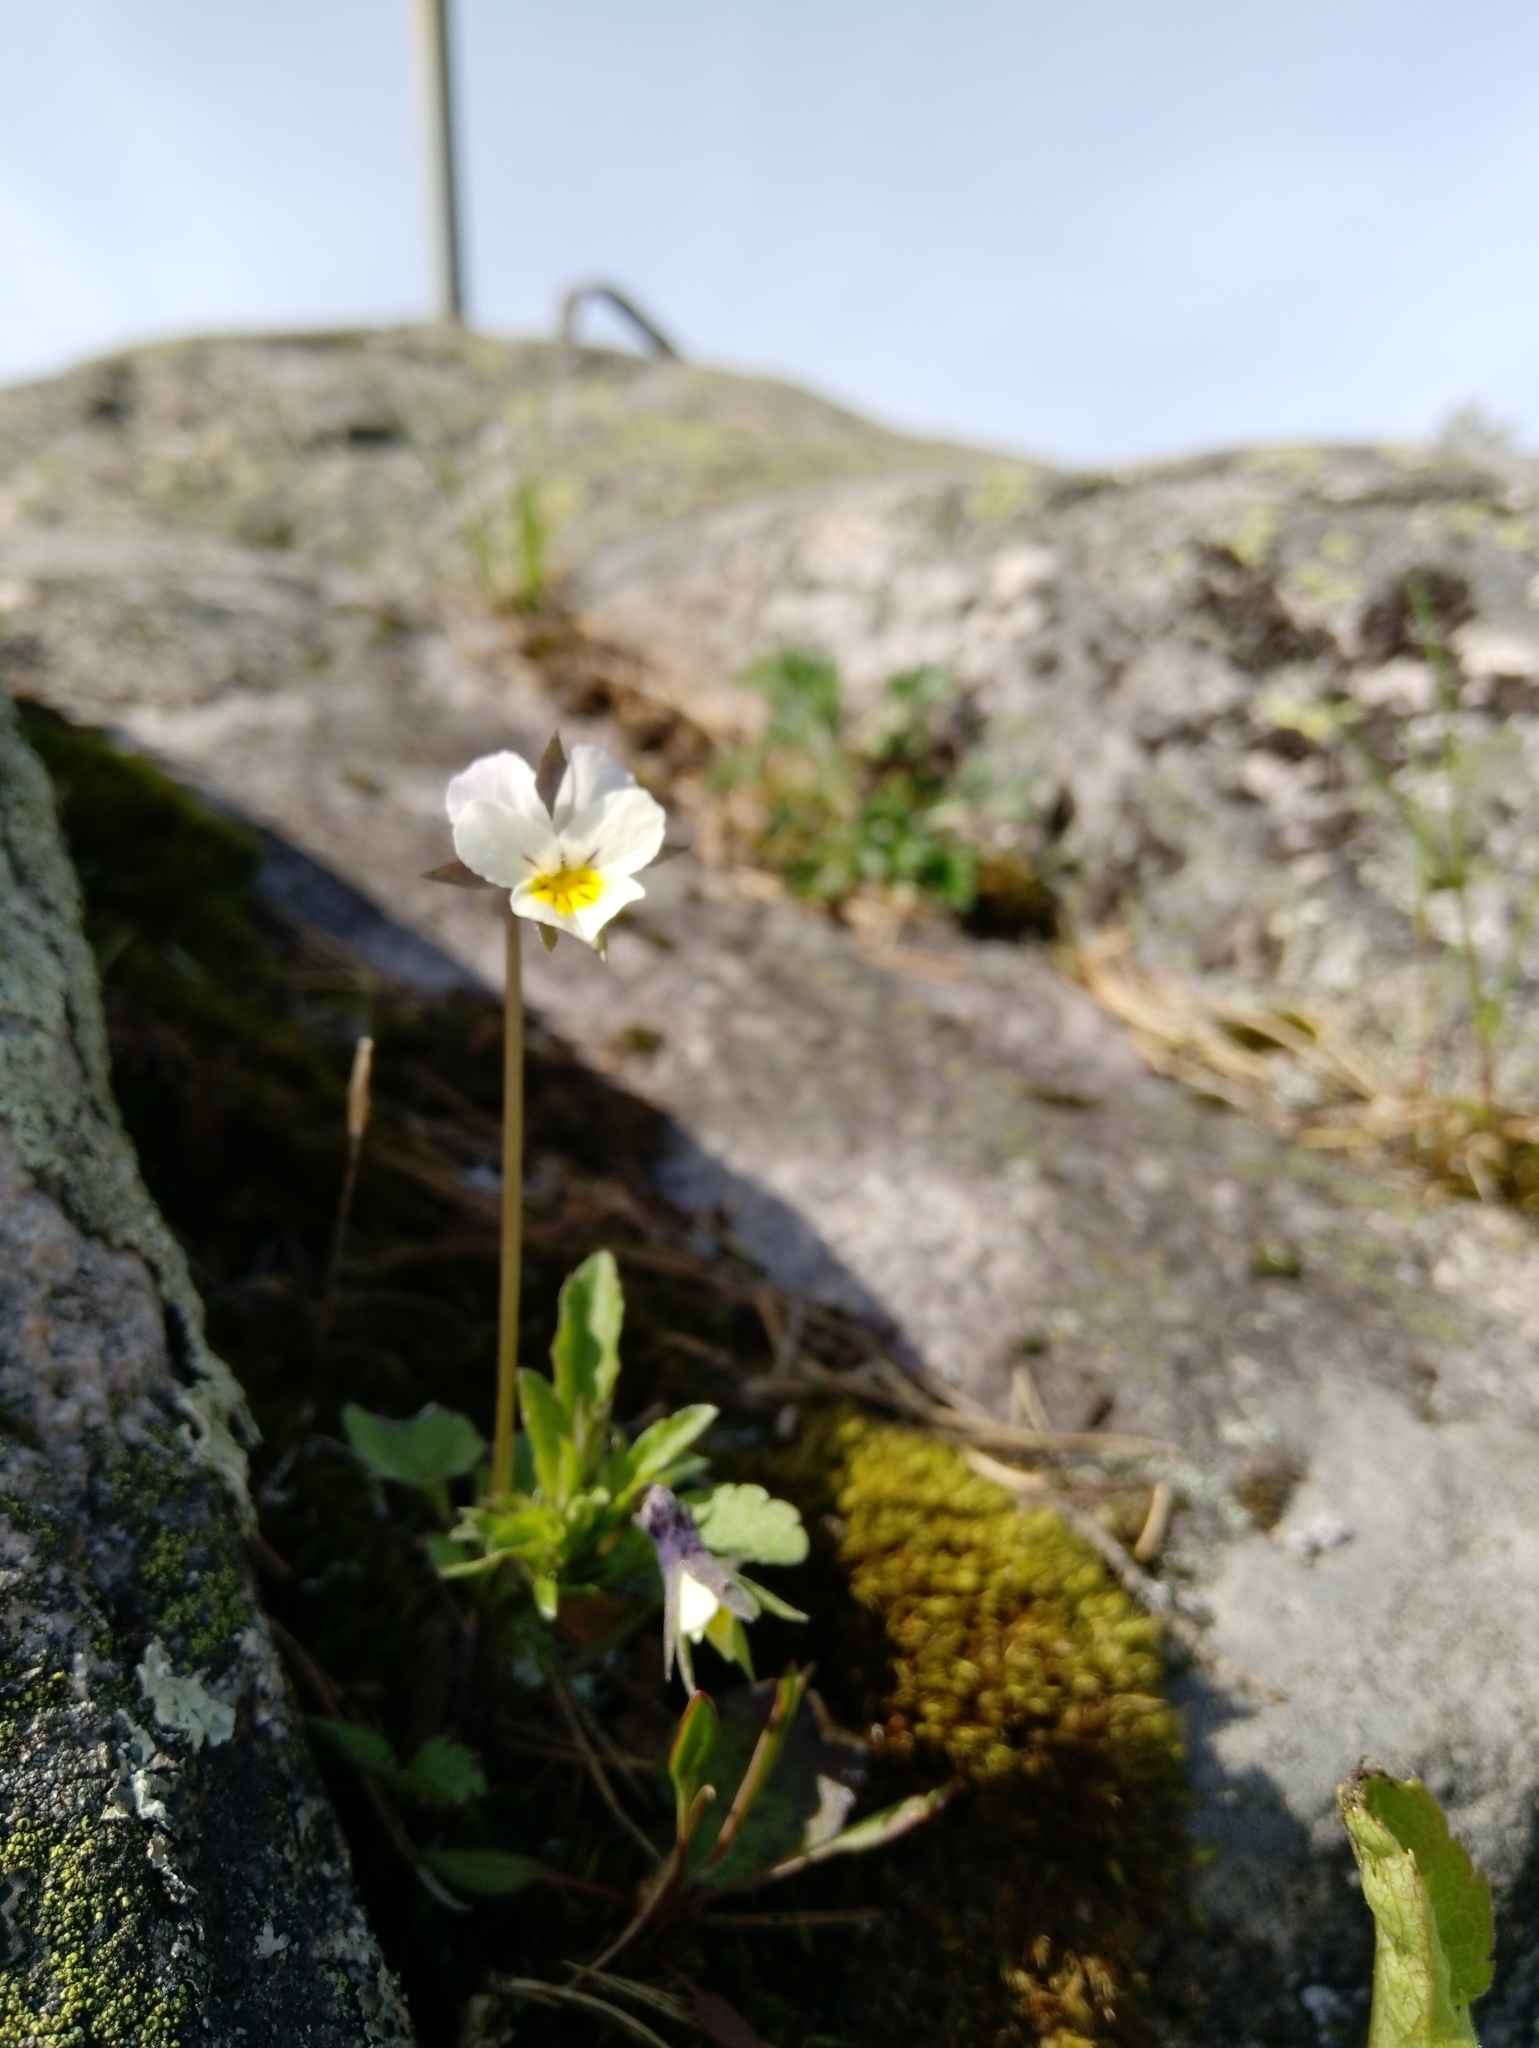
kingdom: Plantae
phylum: Tracheophyta
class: Magnoliopsida
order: Malpighiales
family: Violaceae
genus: Viola
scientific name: Viola arvensis
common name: Field pansy
